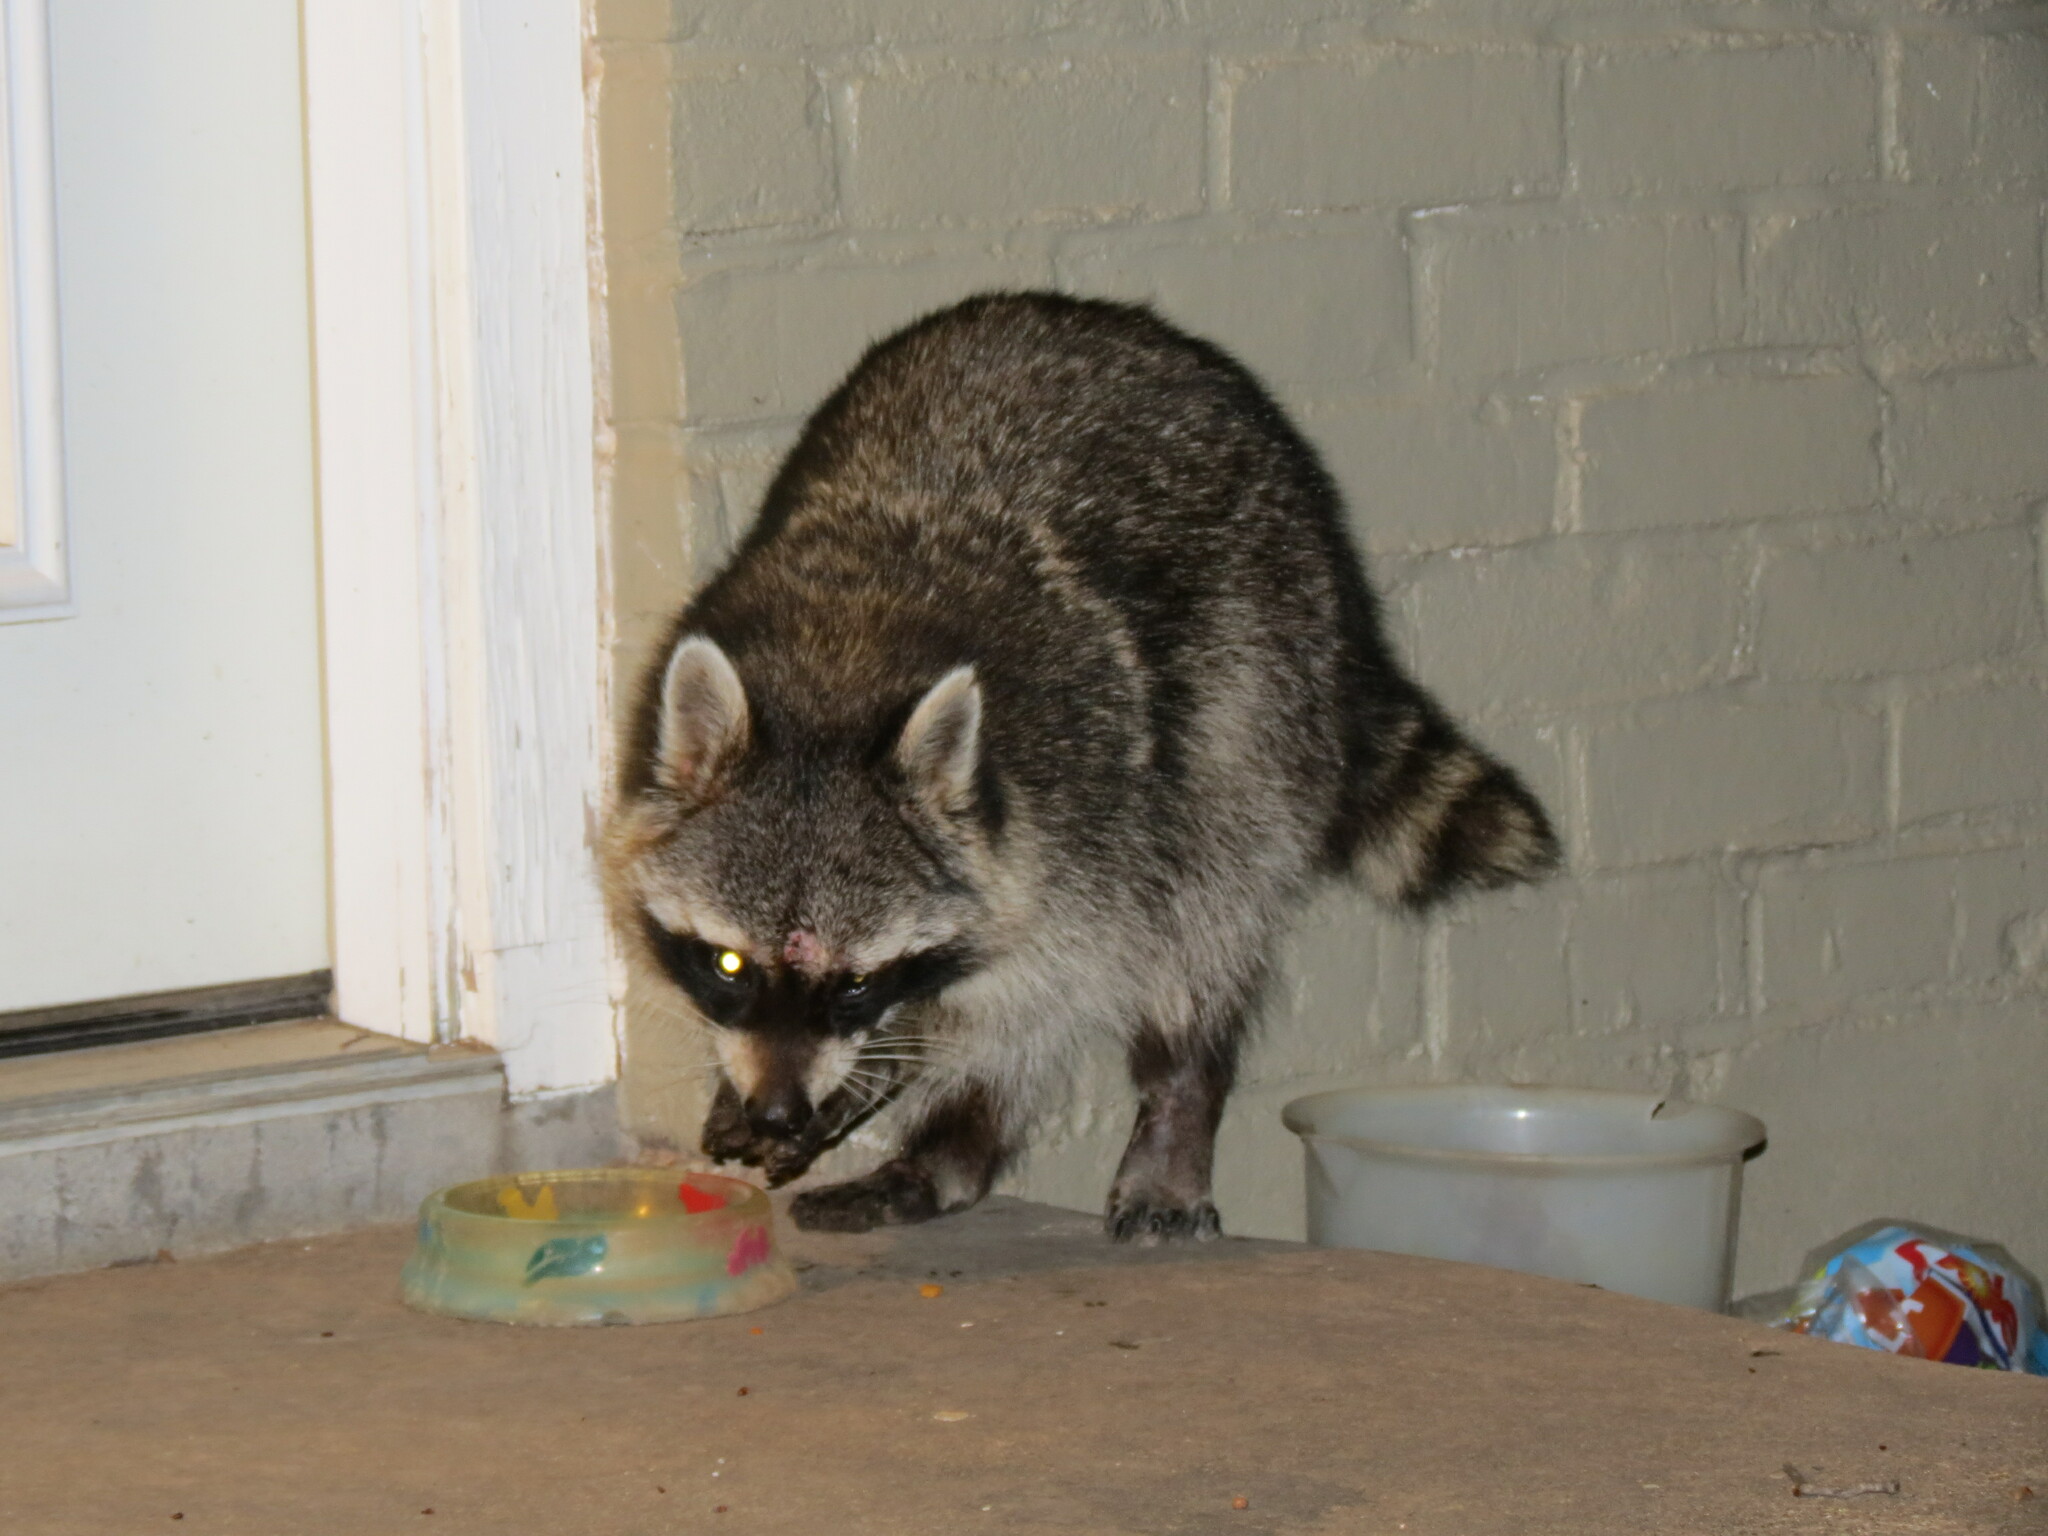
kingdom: Animalia
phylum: Chordata
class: Mammalia
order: Carnivora
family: Procyonidae
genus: Procyon
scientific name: Procyon lotor
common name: Raccoon
